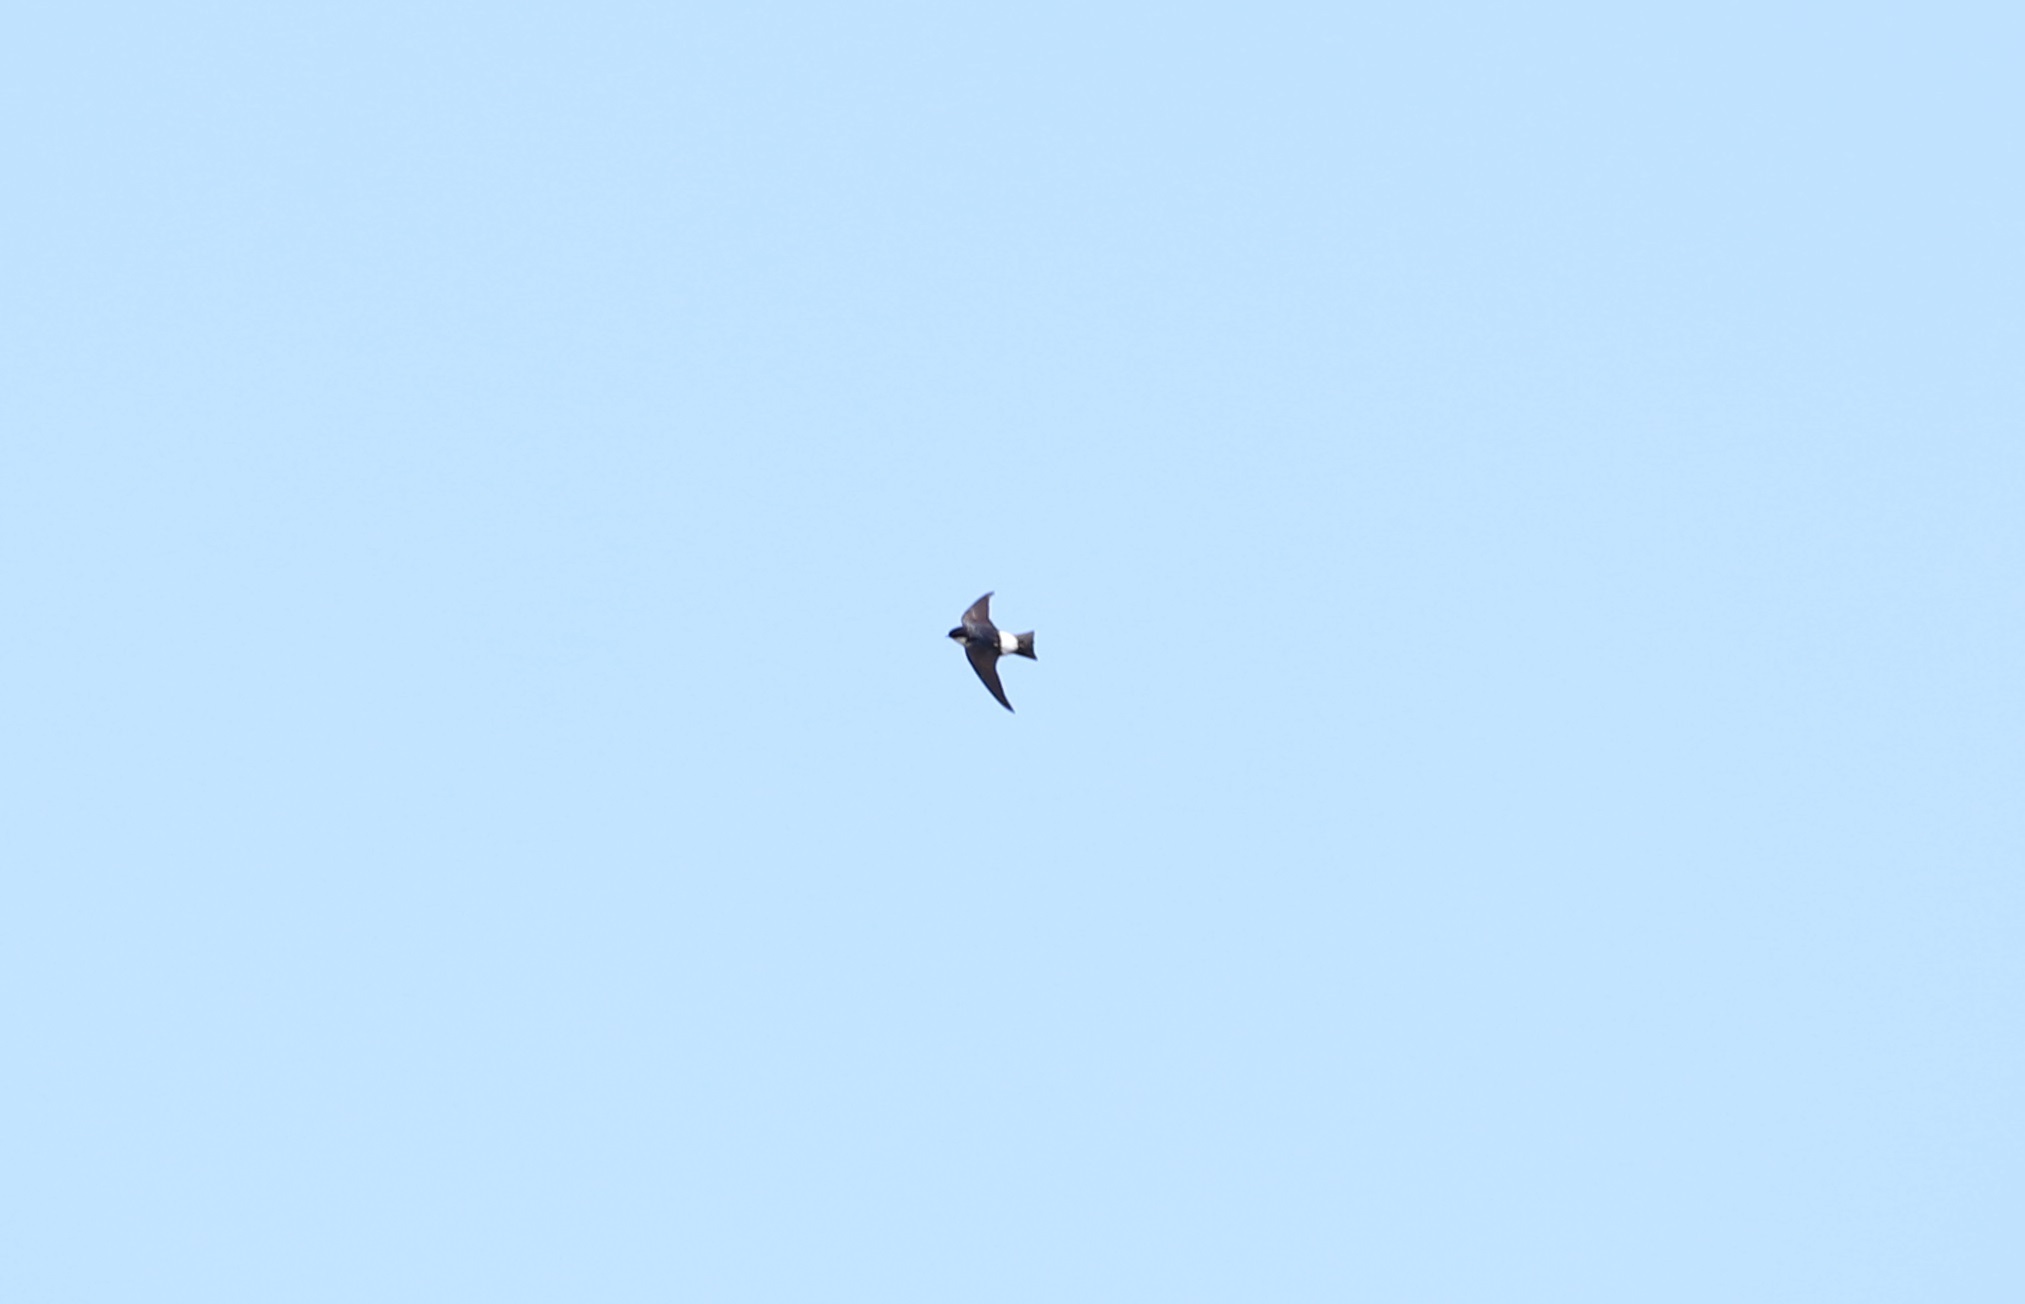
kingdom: Animalia
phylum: Chordata
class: Aves
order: Passeriformes
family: Hirundinidae
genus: Delichon
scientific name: Delichon dasypus
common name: Asian house martin
